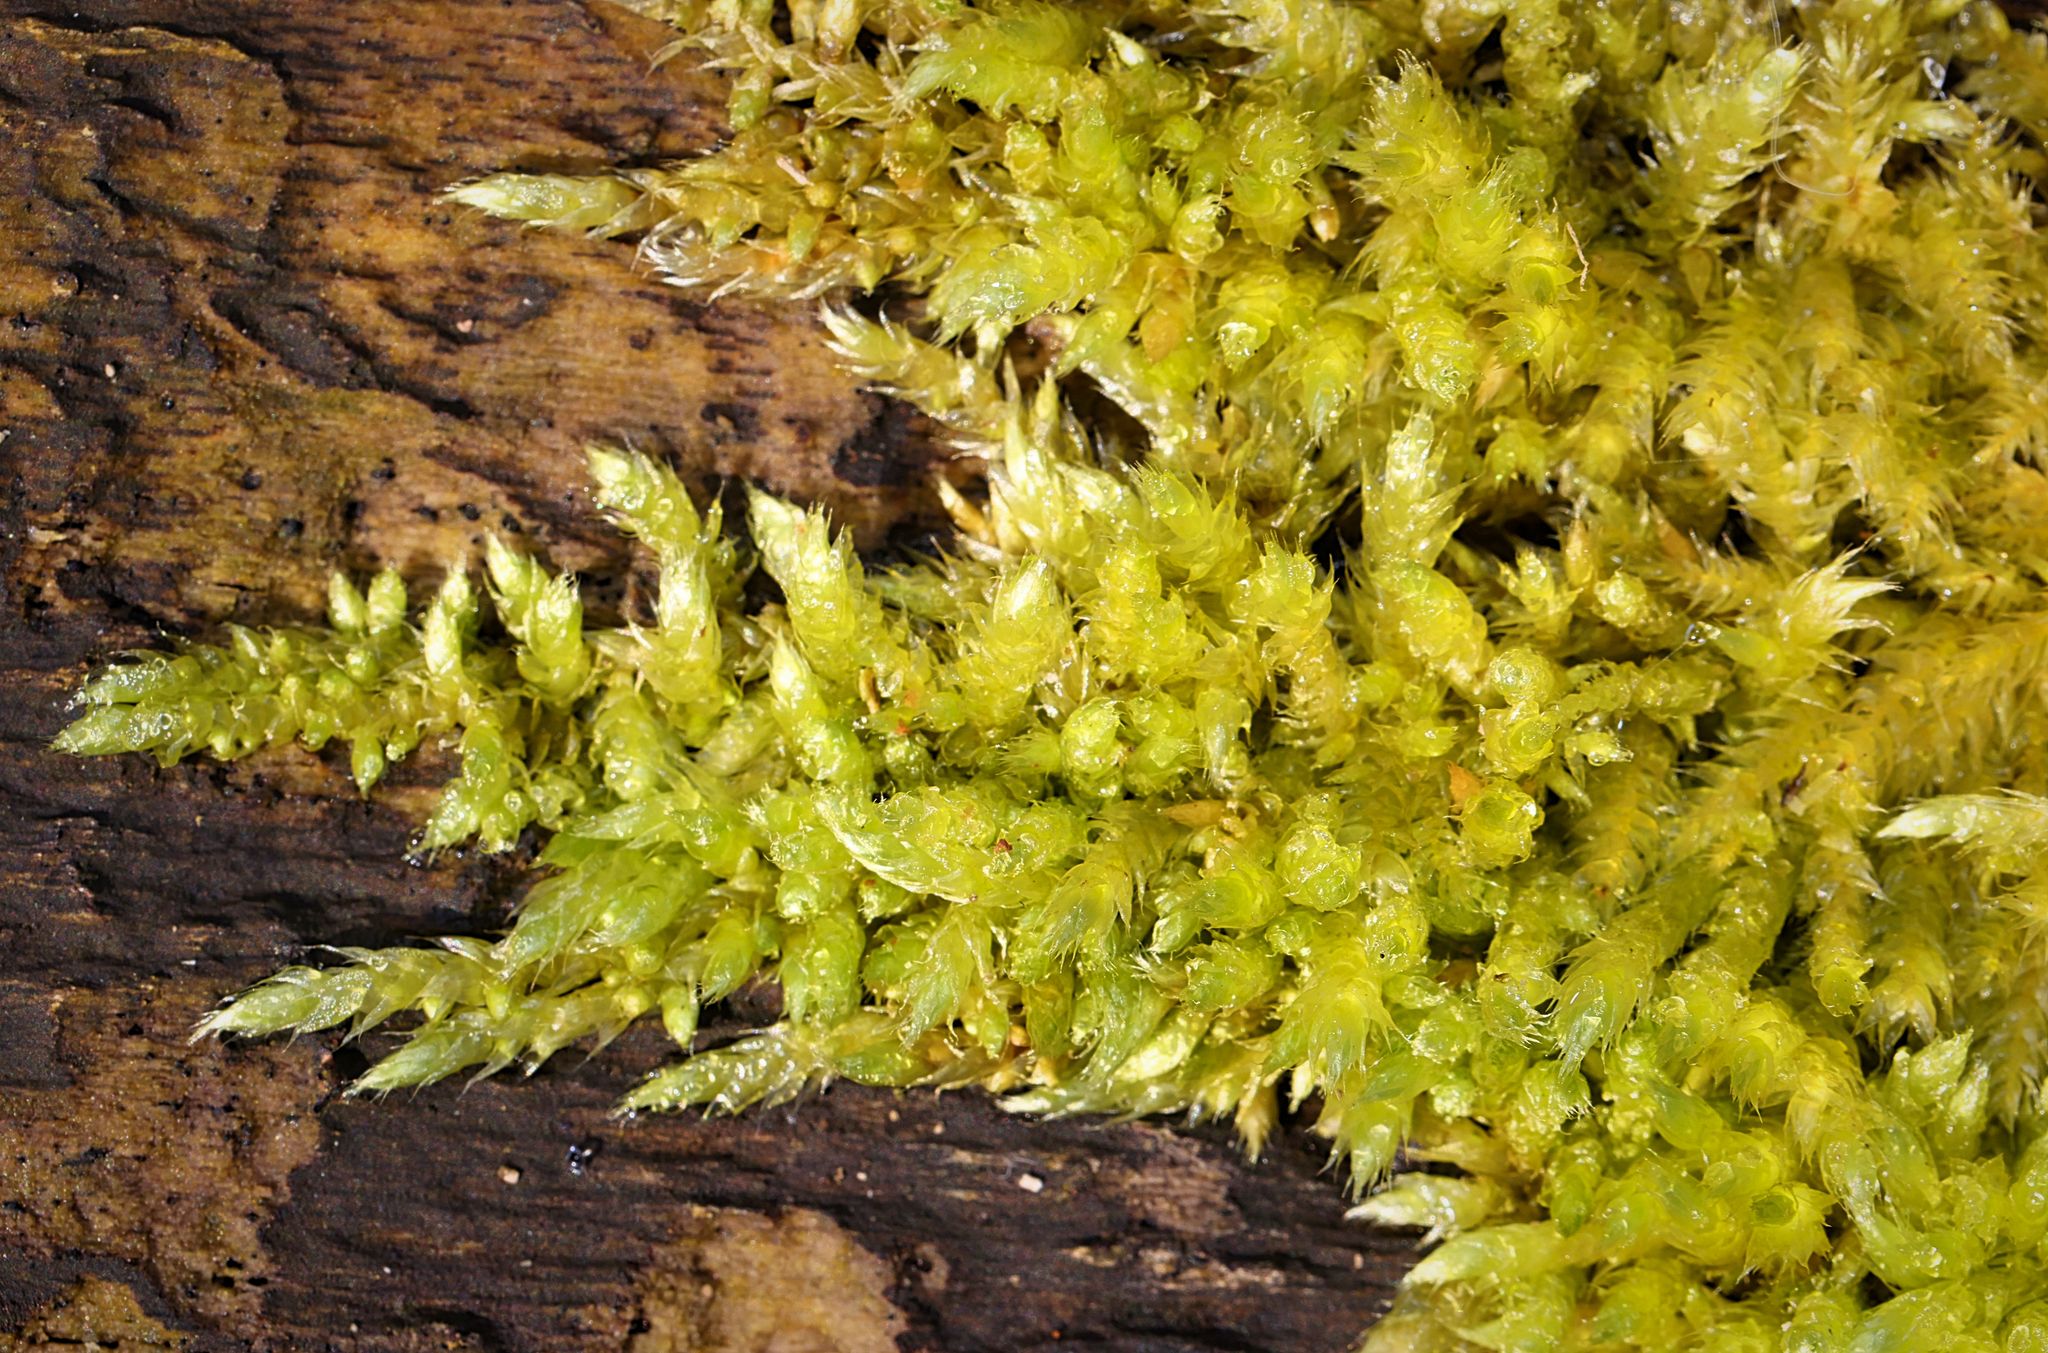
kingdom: Plantae
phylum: Bryophyta
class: Bryopsida
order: Hypnales
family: Brachytheciaceae
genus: Brachythecium
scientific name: Brachythecium rutabulum
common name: Rough-stalked feather-moss
